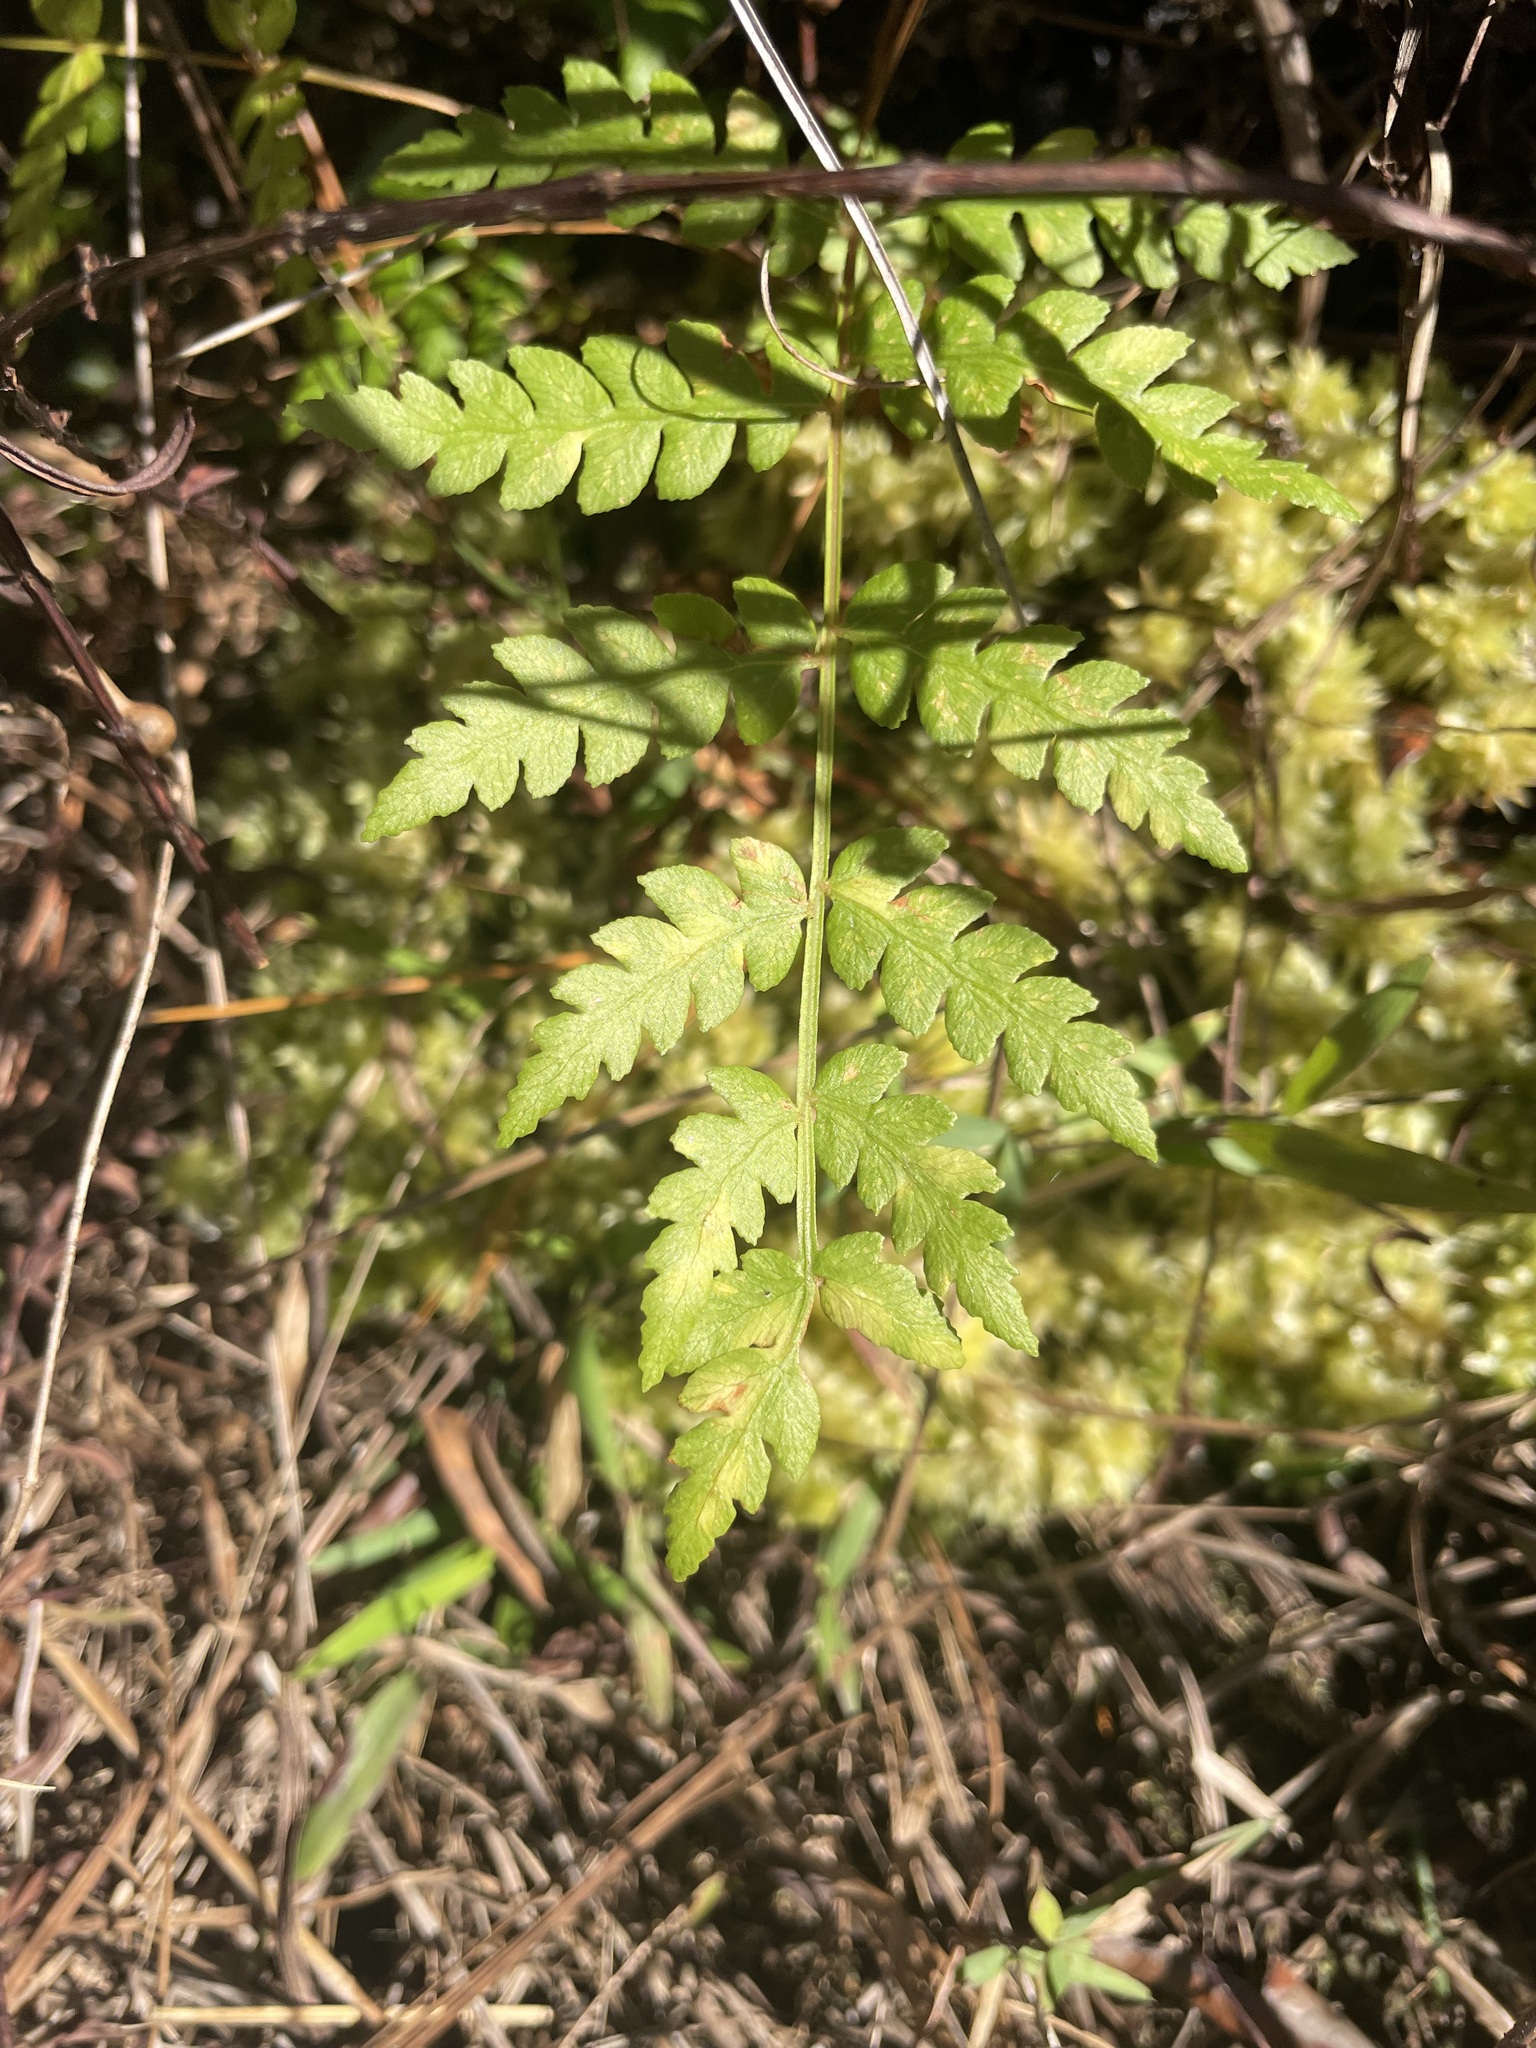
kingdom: Plantae
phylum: Tracheophyta
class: Polypodiopsida
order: Osmundales
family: Osmundaceae
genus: Osmundastrum
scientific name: Osmundastrum cinnamomeum
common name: Cinnamon fern
